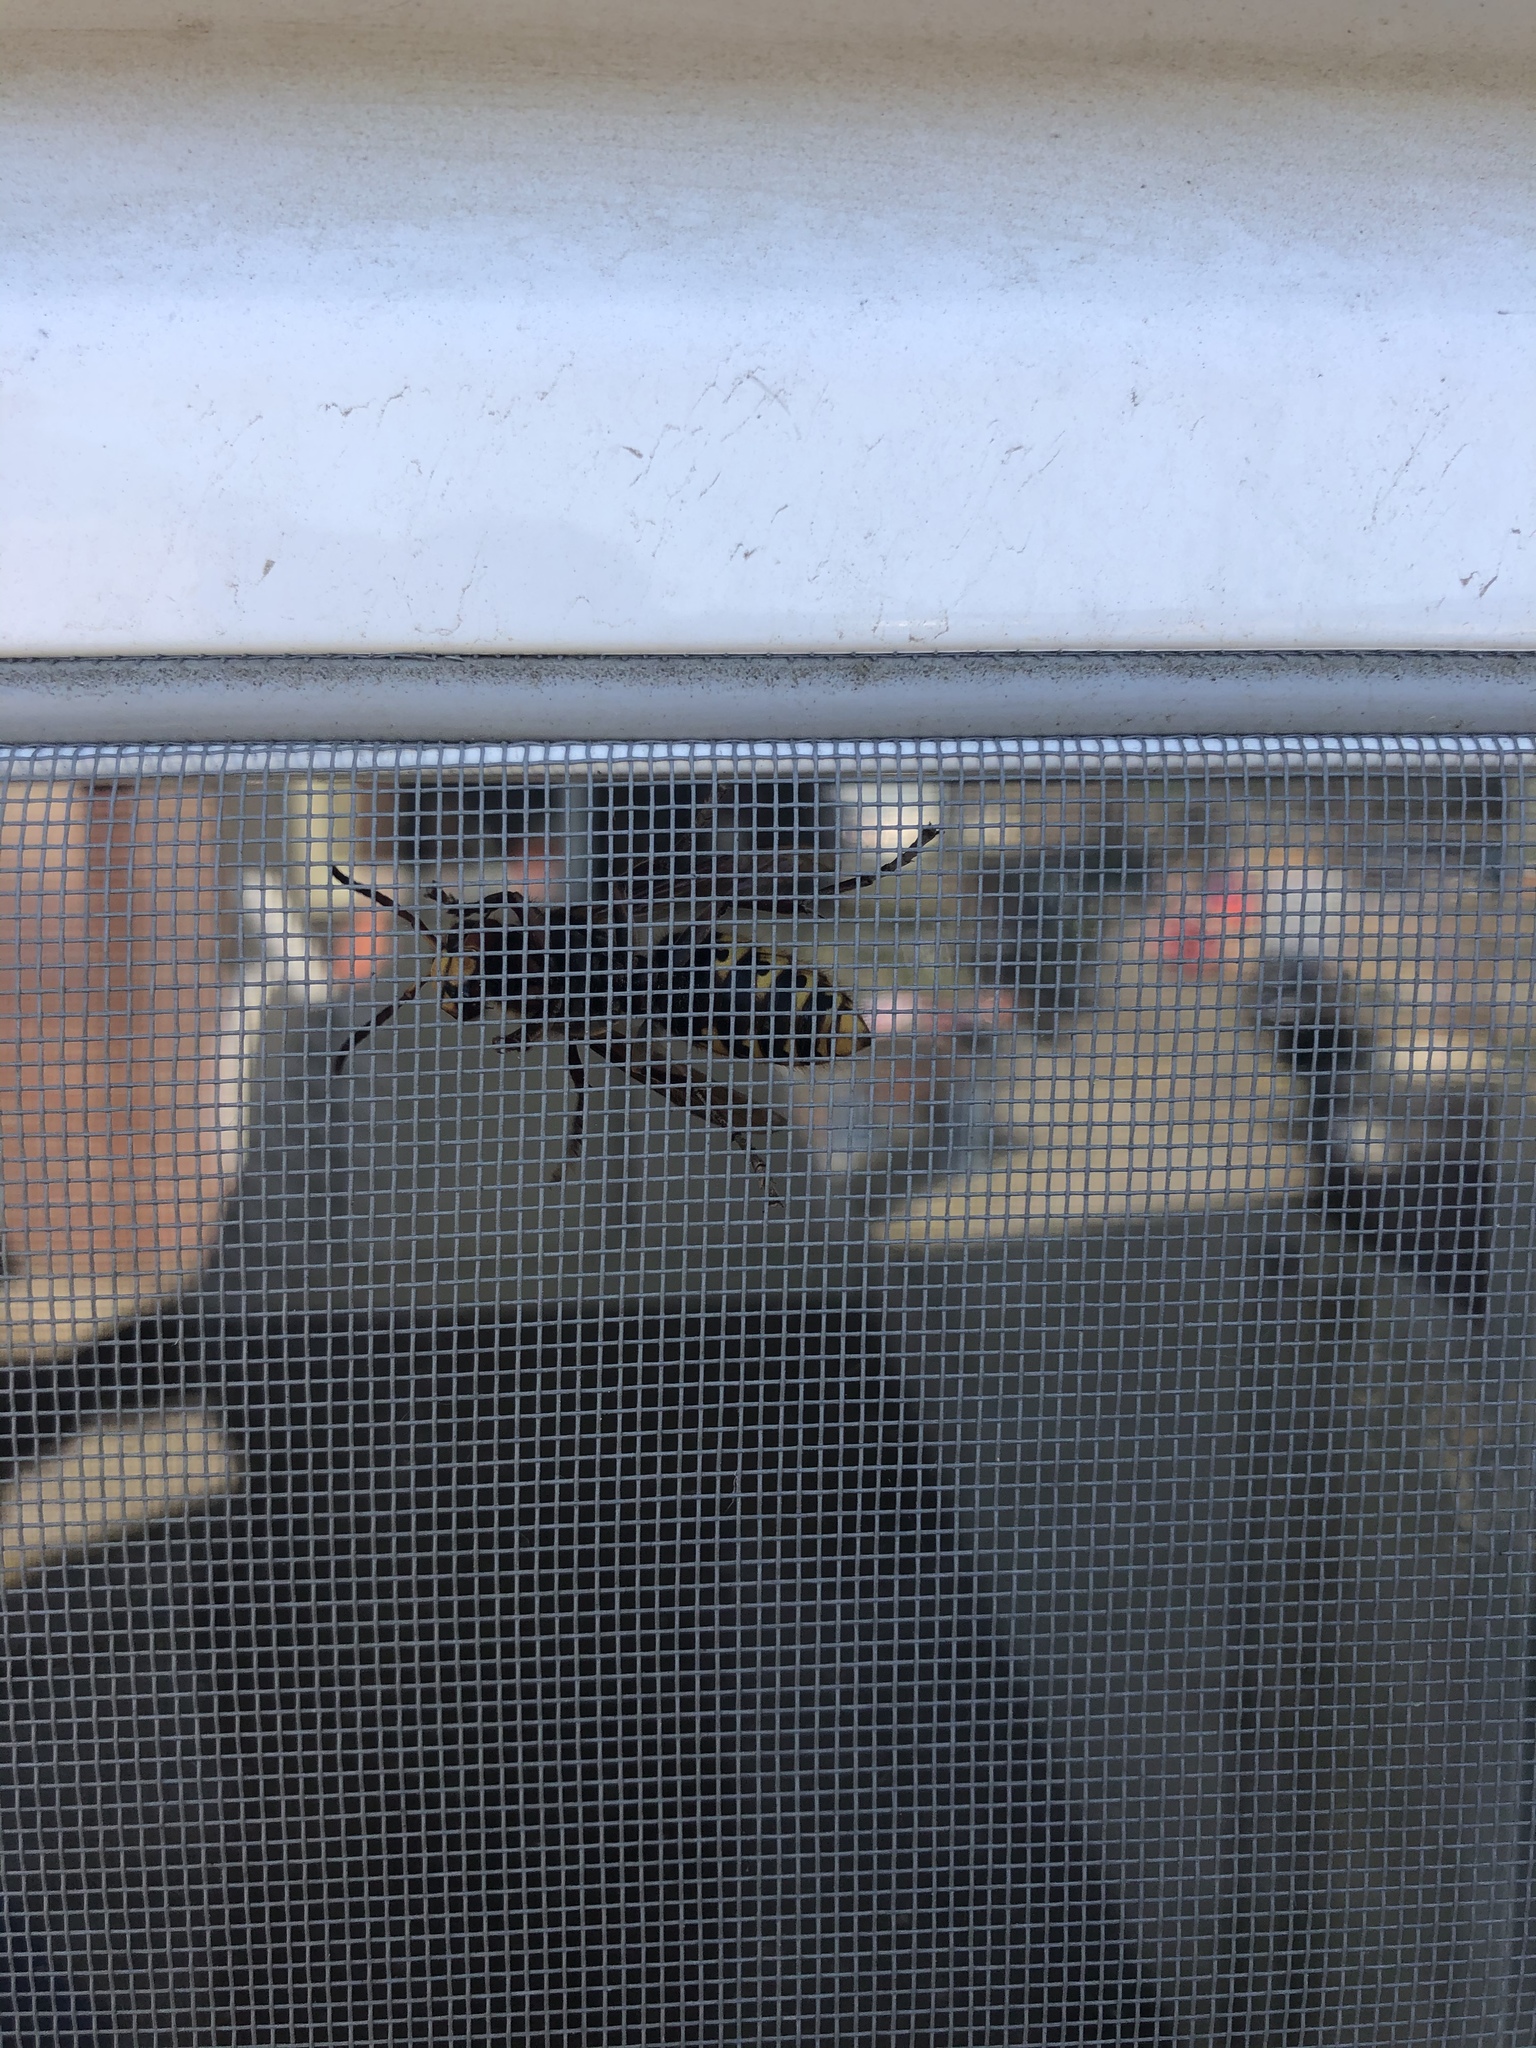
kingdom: Animalia
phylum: Arthropoda
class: Insecta
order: Hymenoptera
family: Vespidae
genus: Vespa
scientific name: Vespa crabro
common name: Hornet
